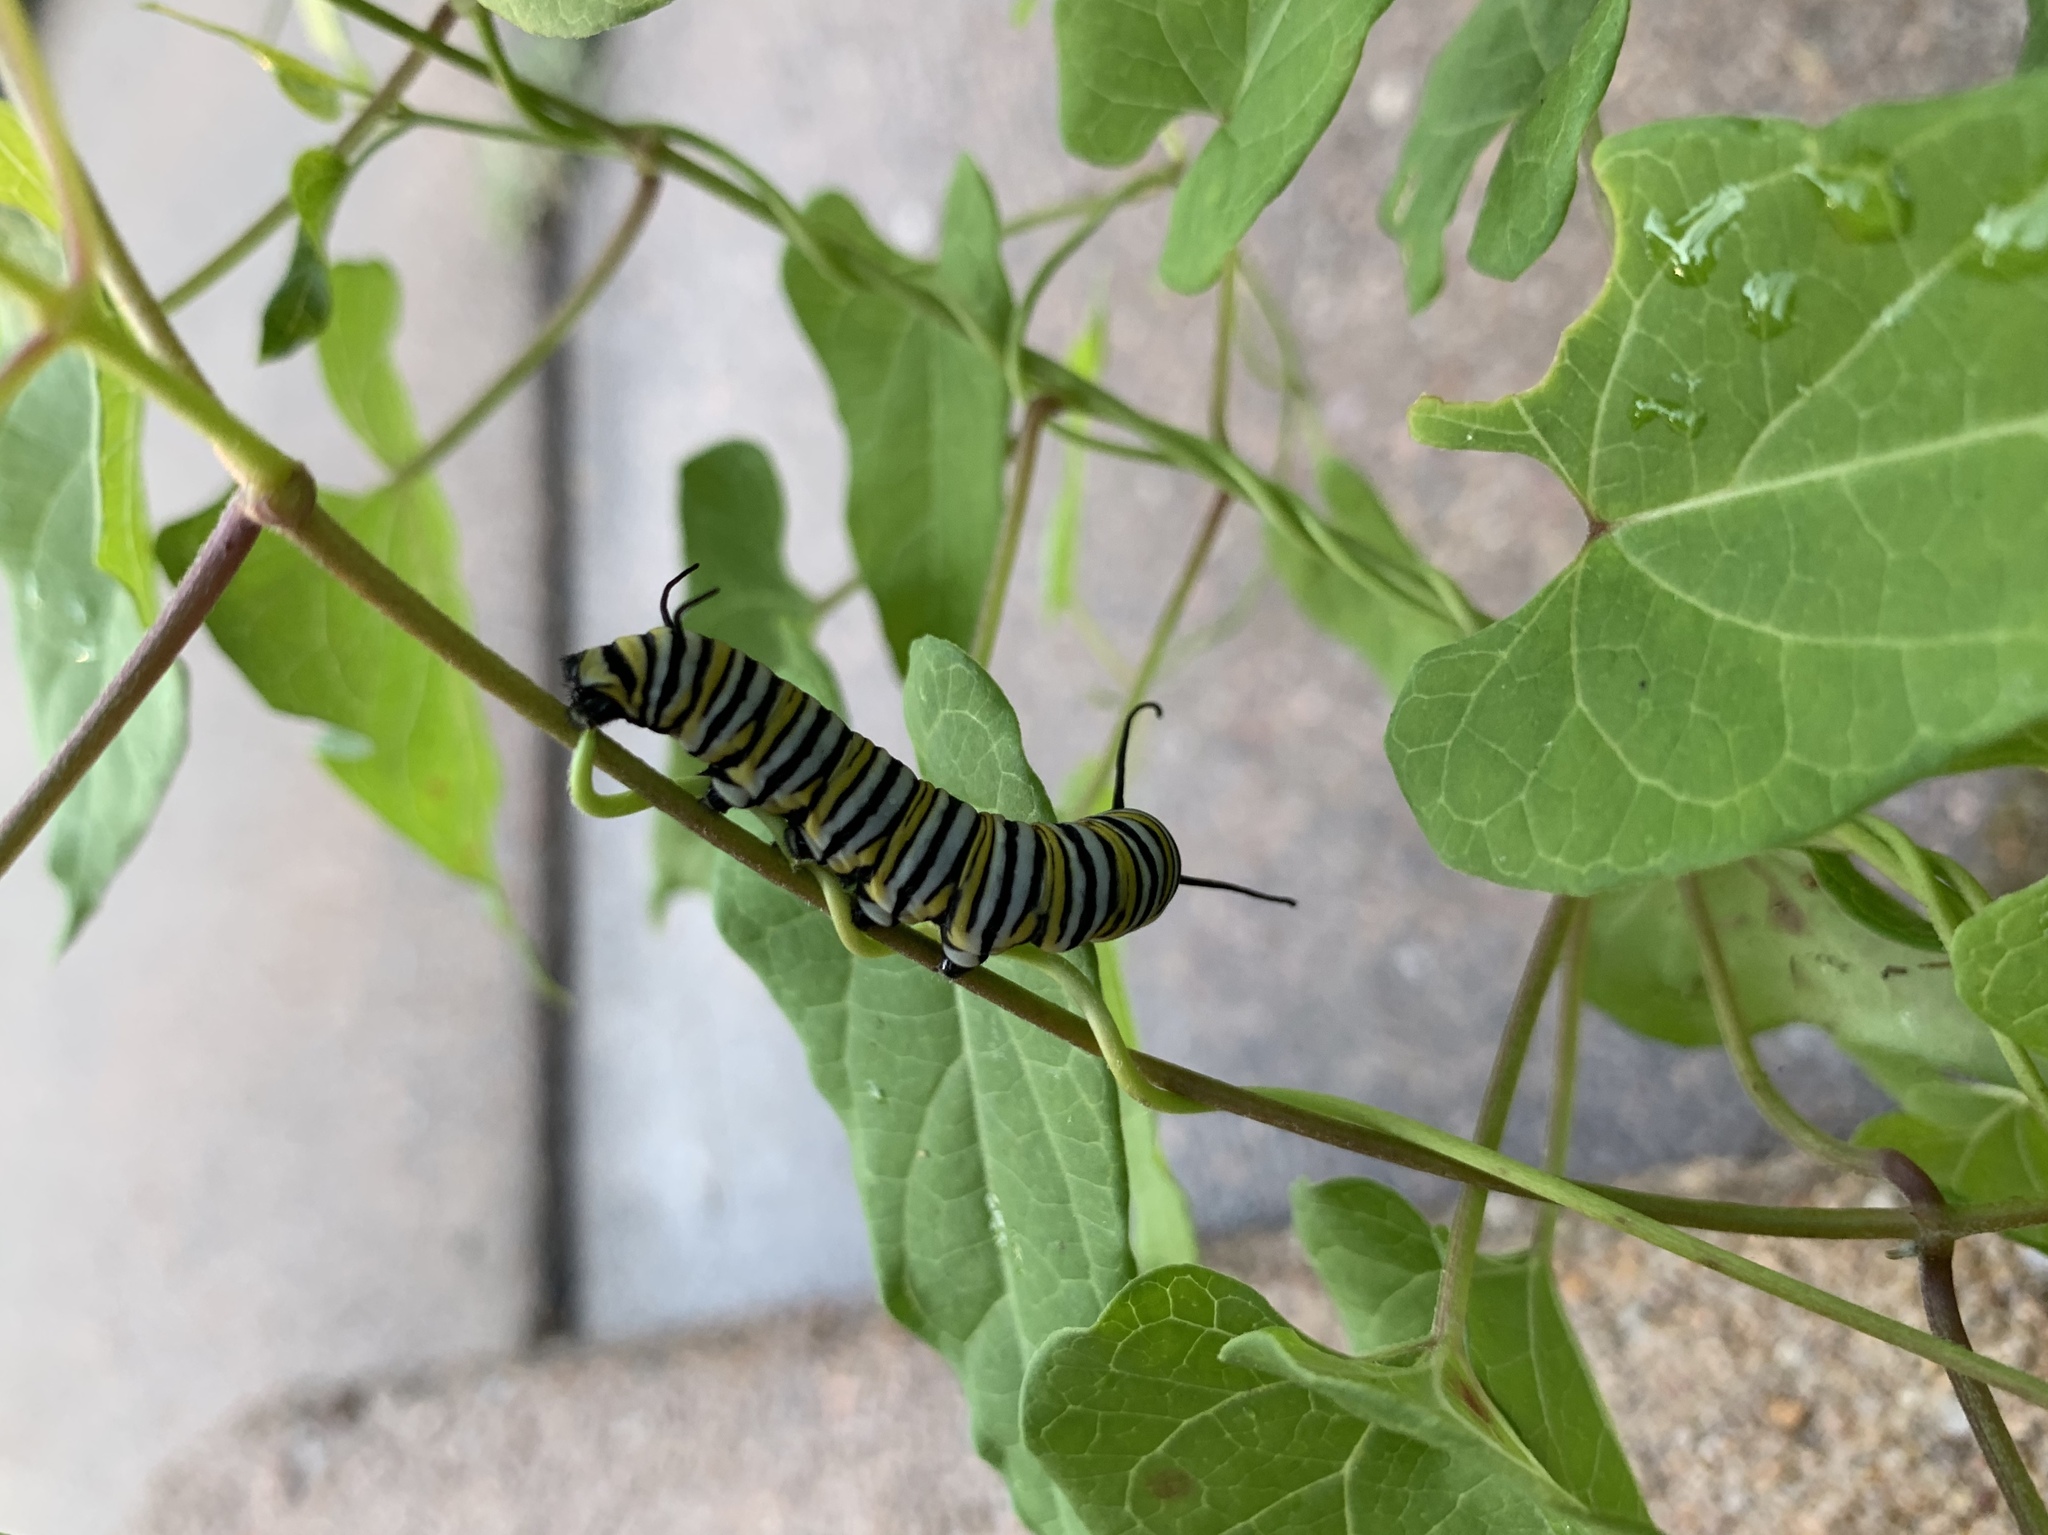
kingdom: Animalia
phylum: Arthropoda
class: Insecta
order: Lepidoptera
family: Nymphalidae
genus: Danaus
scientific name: Danaus plexippus
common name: Monarch
